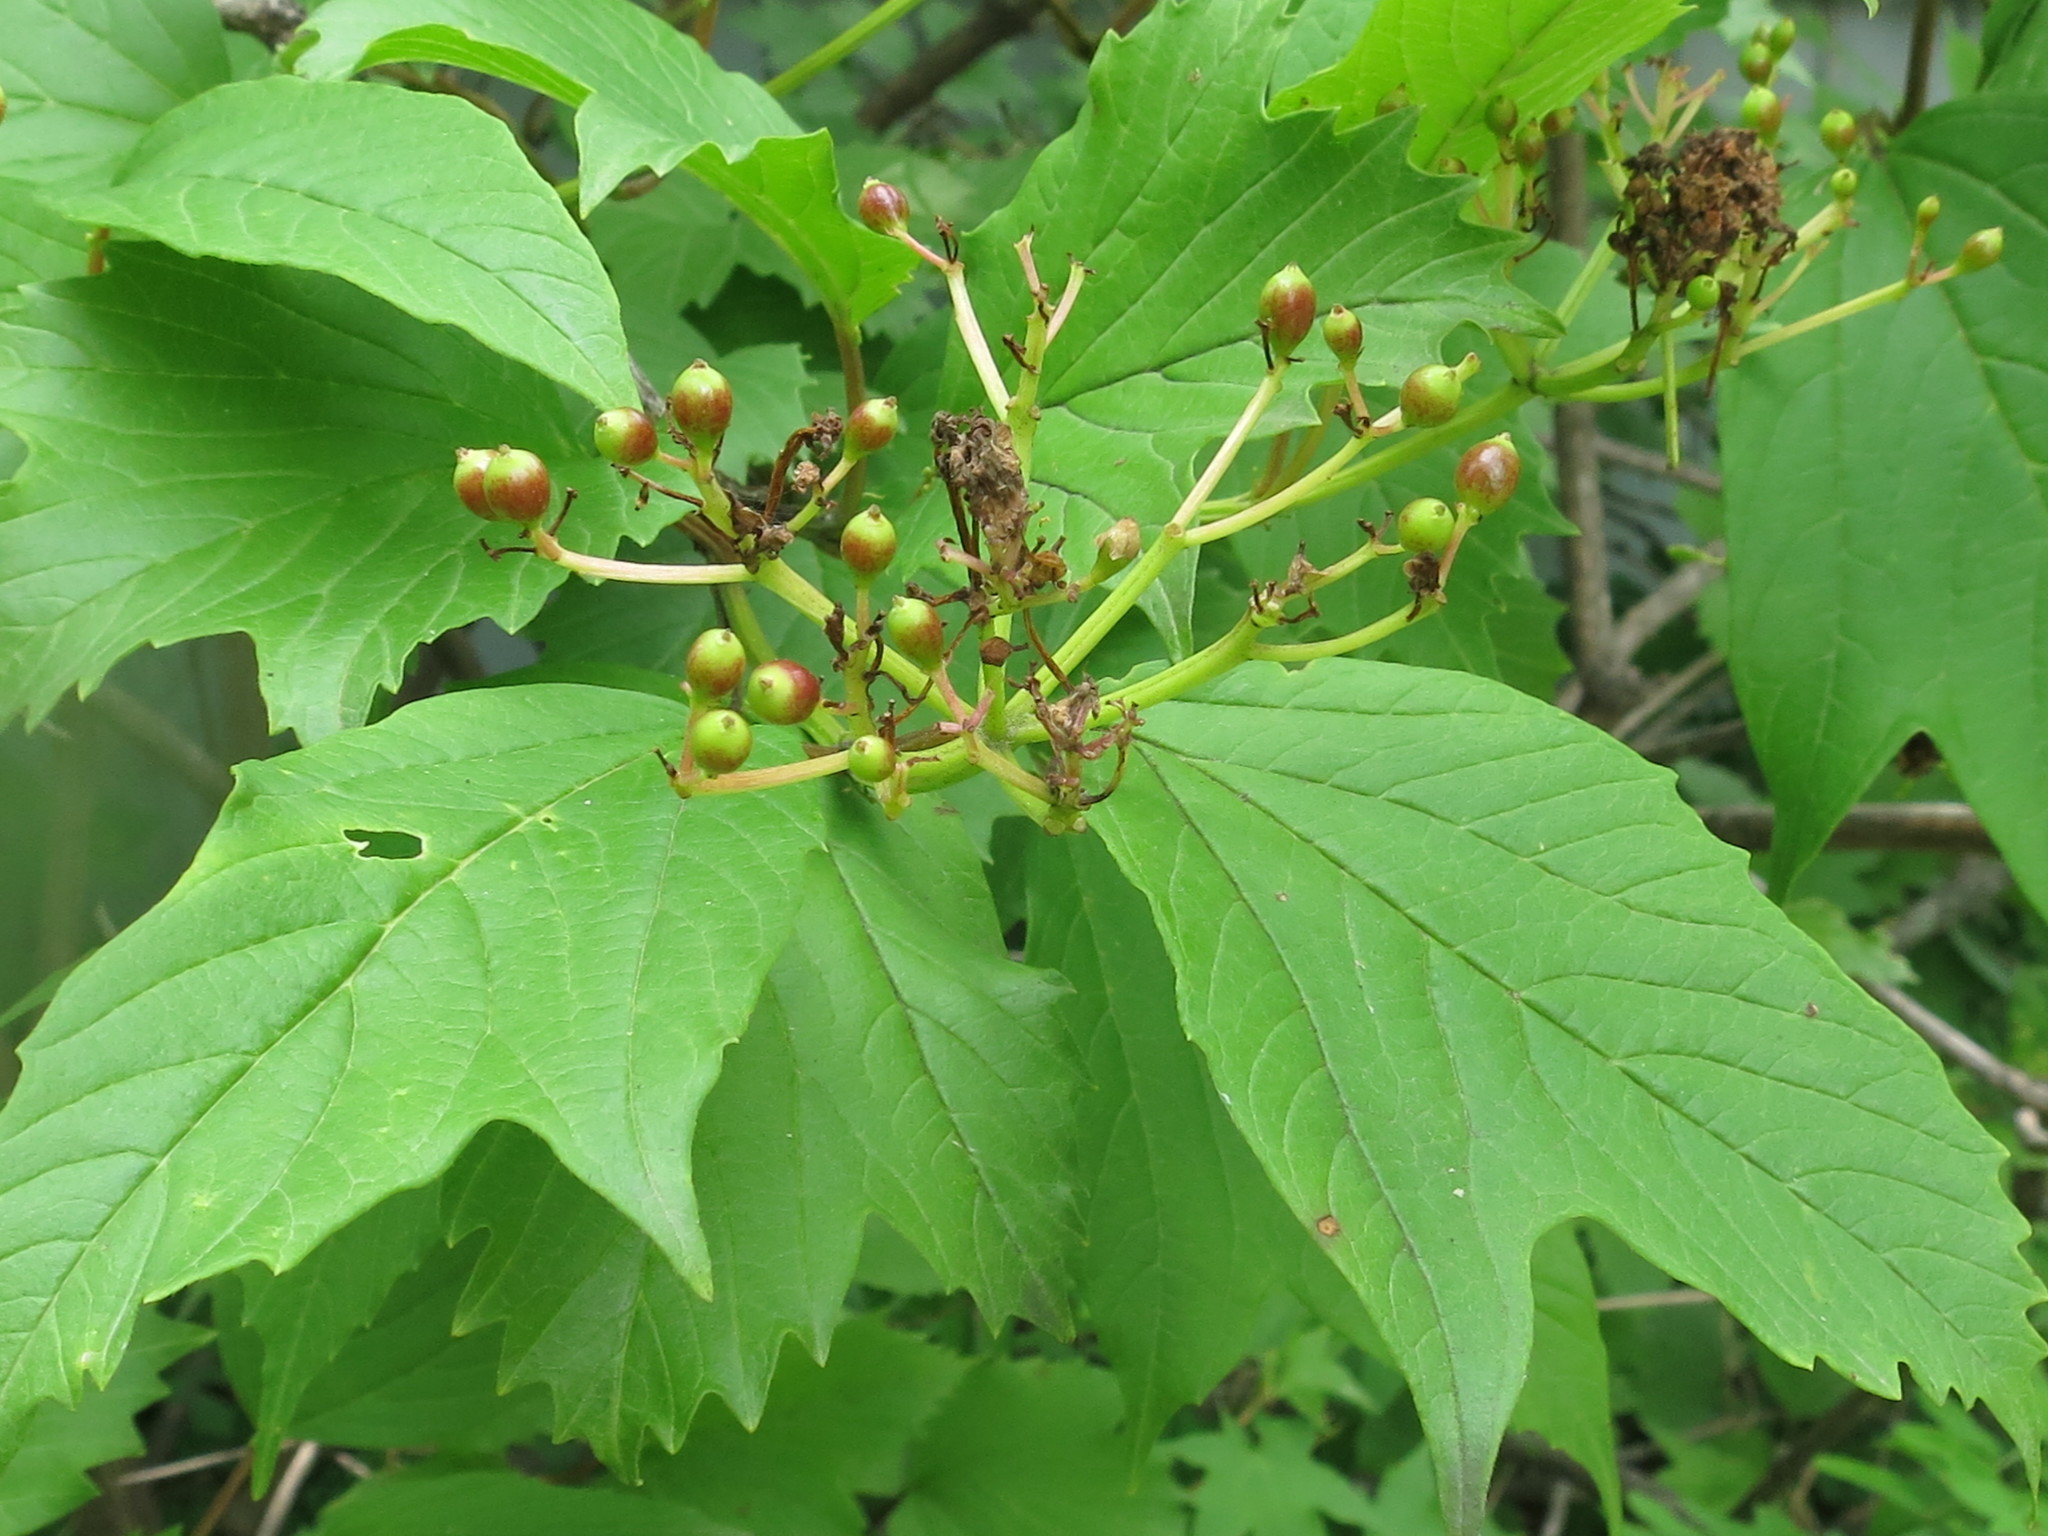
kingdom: Plantae
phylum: Tracheophyta
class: Magnoliopsida
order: Dipsacales
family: Viburnaceae
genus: Viburnum
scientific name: Viburnum sargentii
